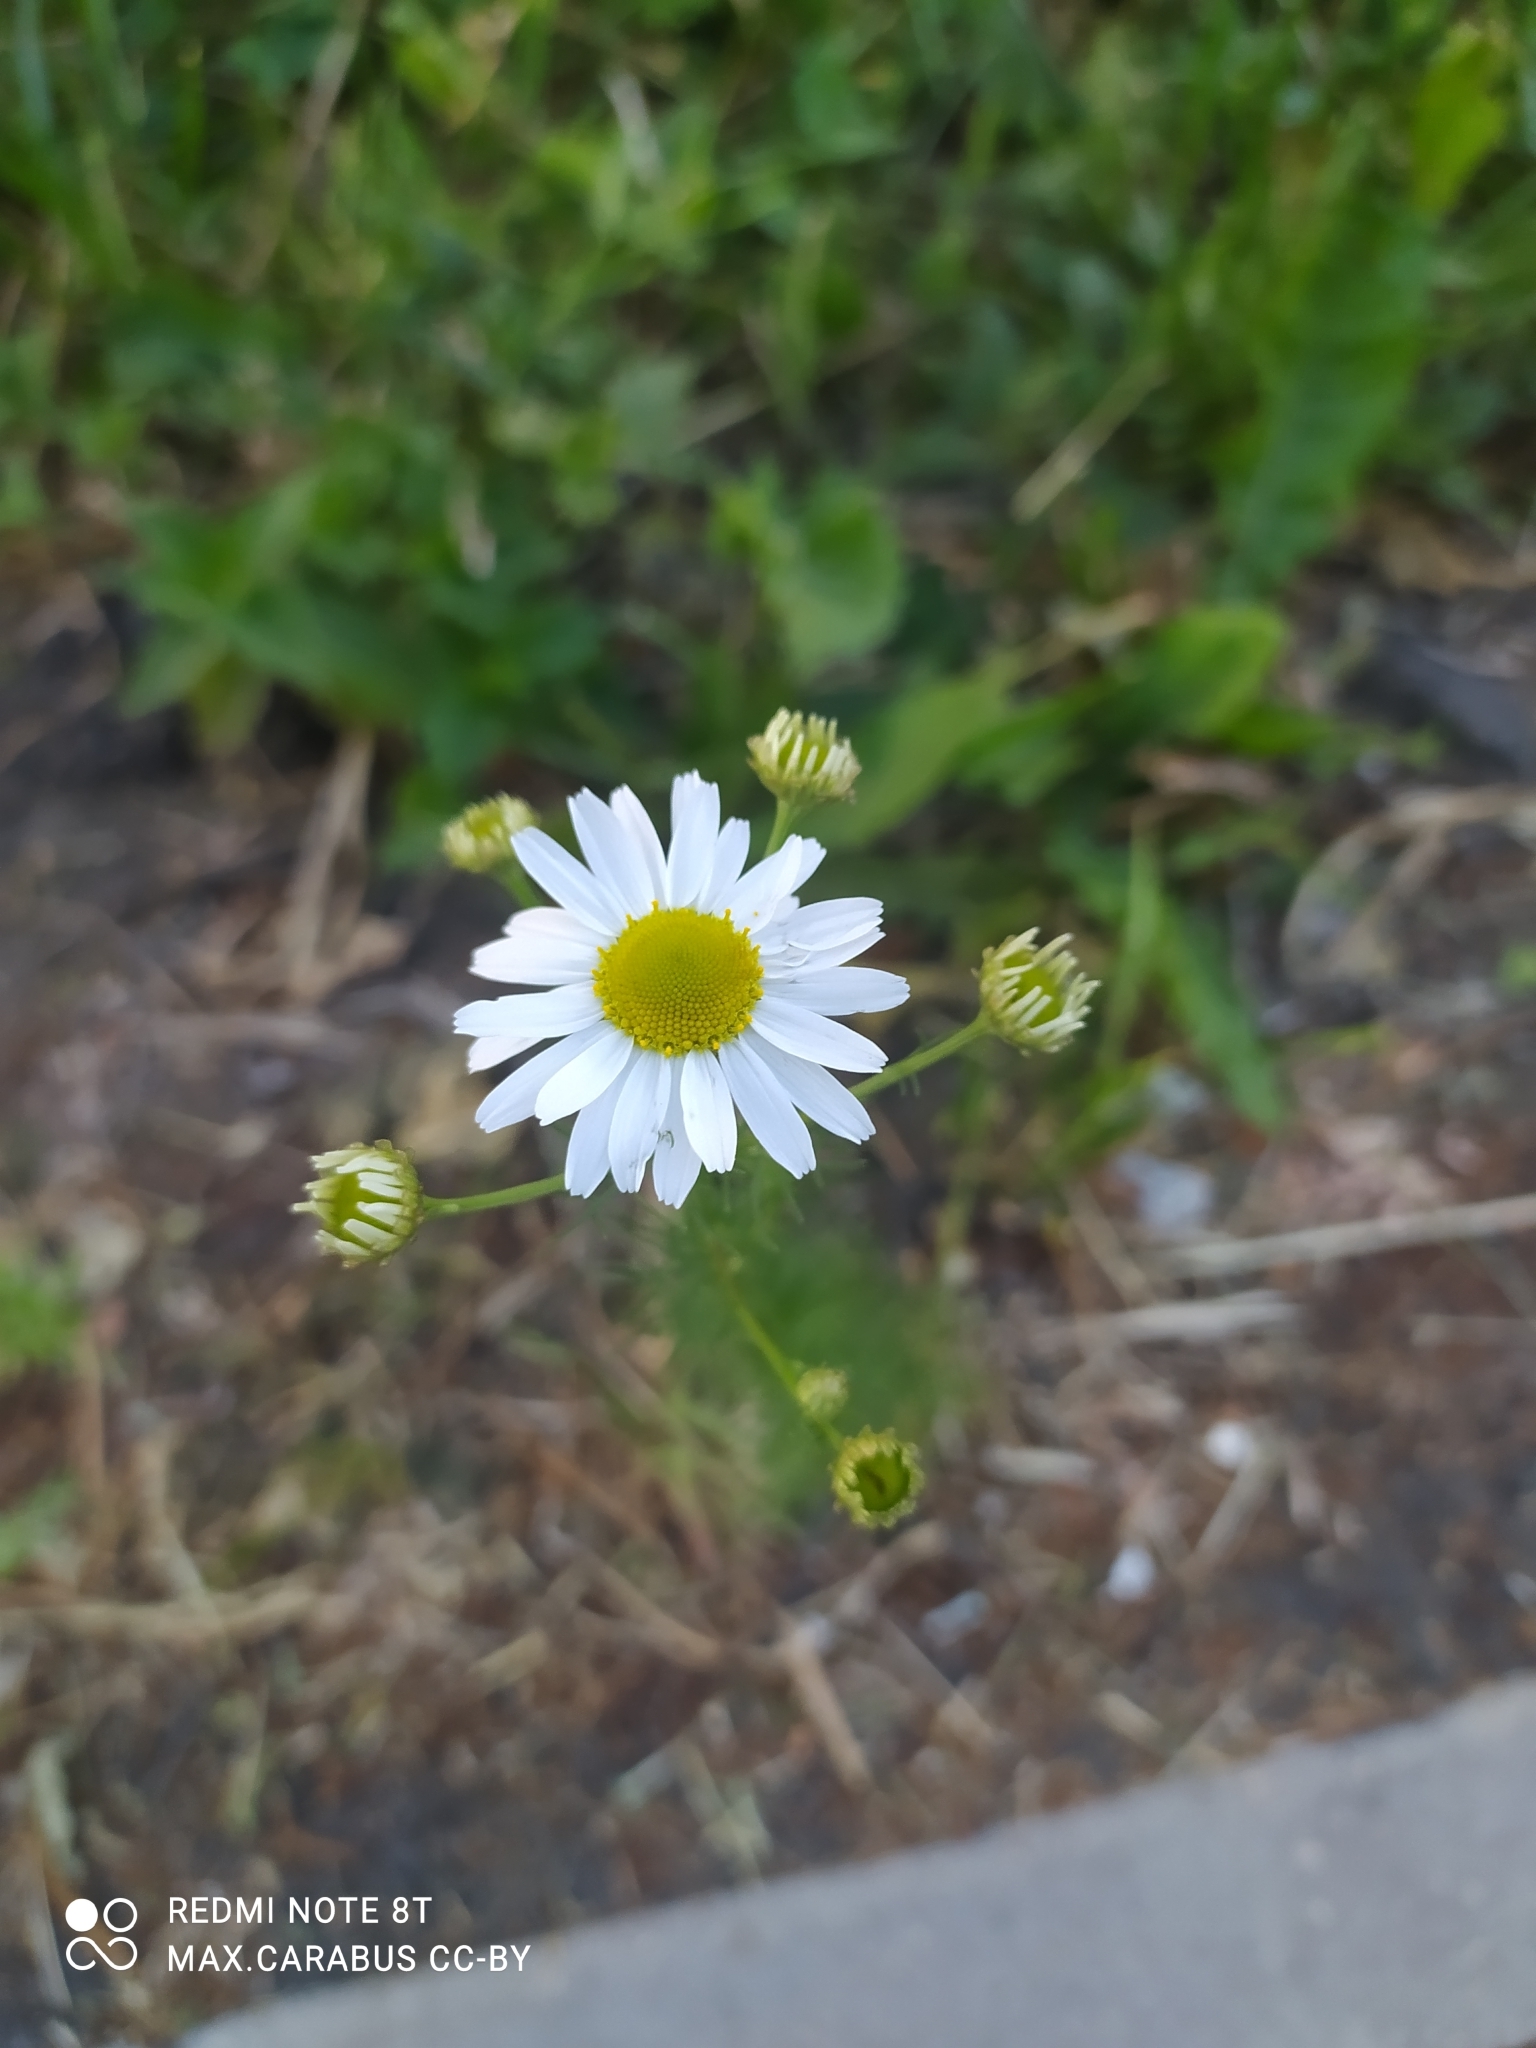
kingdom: Plantae
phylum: Tracheophyta
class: Magnoliopsida
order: Asterales
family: Asteraceae
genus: Tripleurospermum
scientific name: Tripleurospermum inodorum
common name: Scentless mayweed
